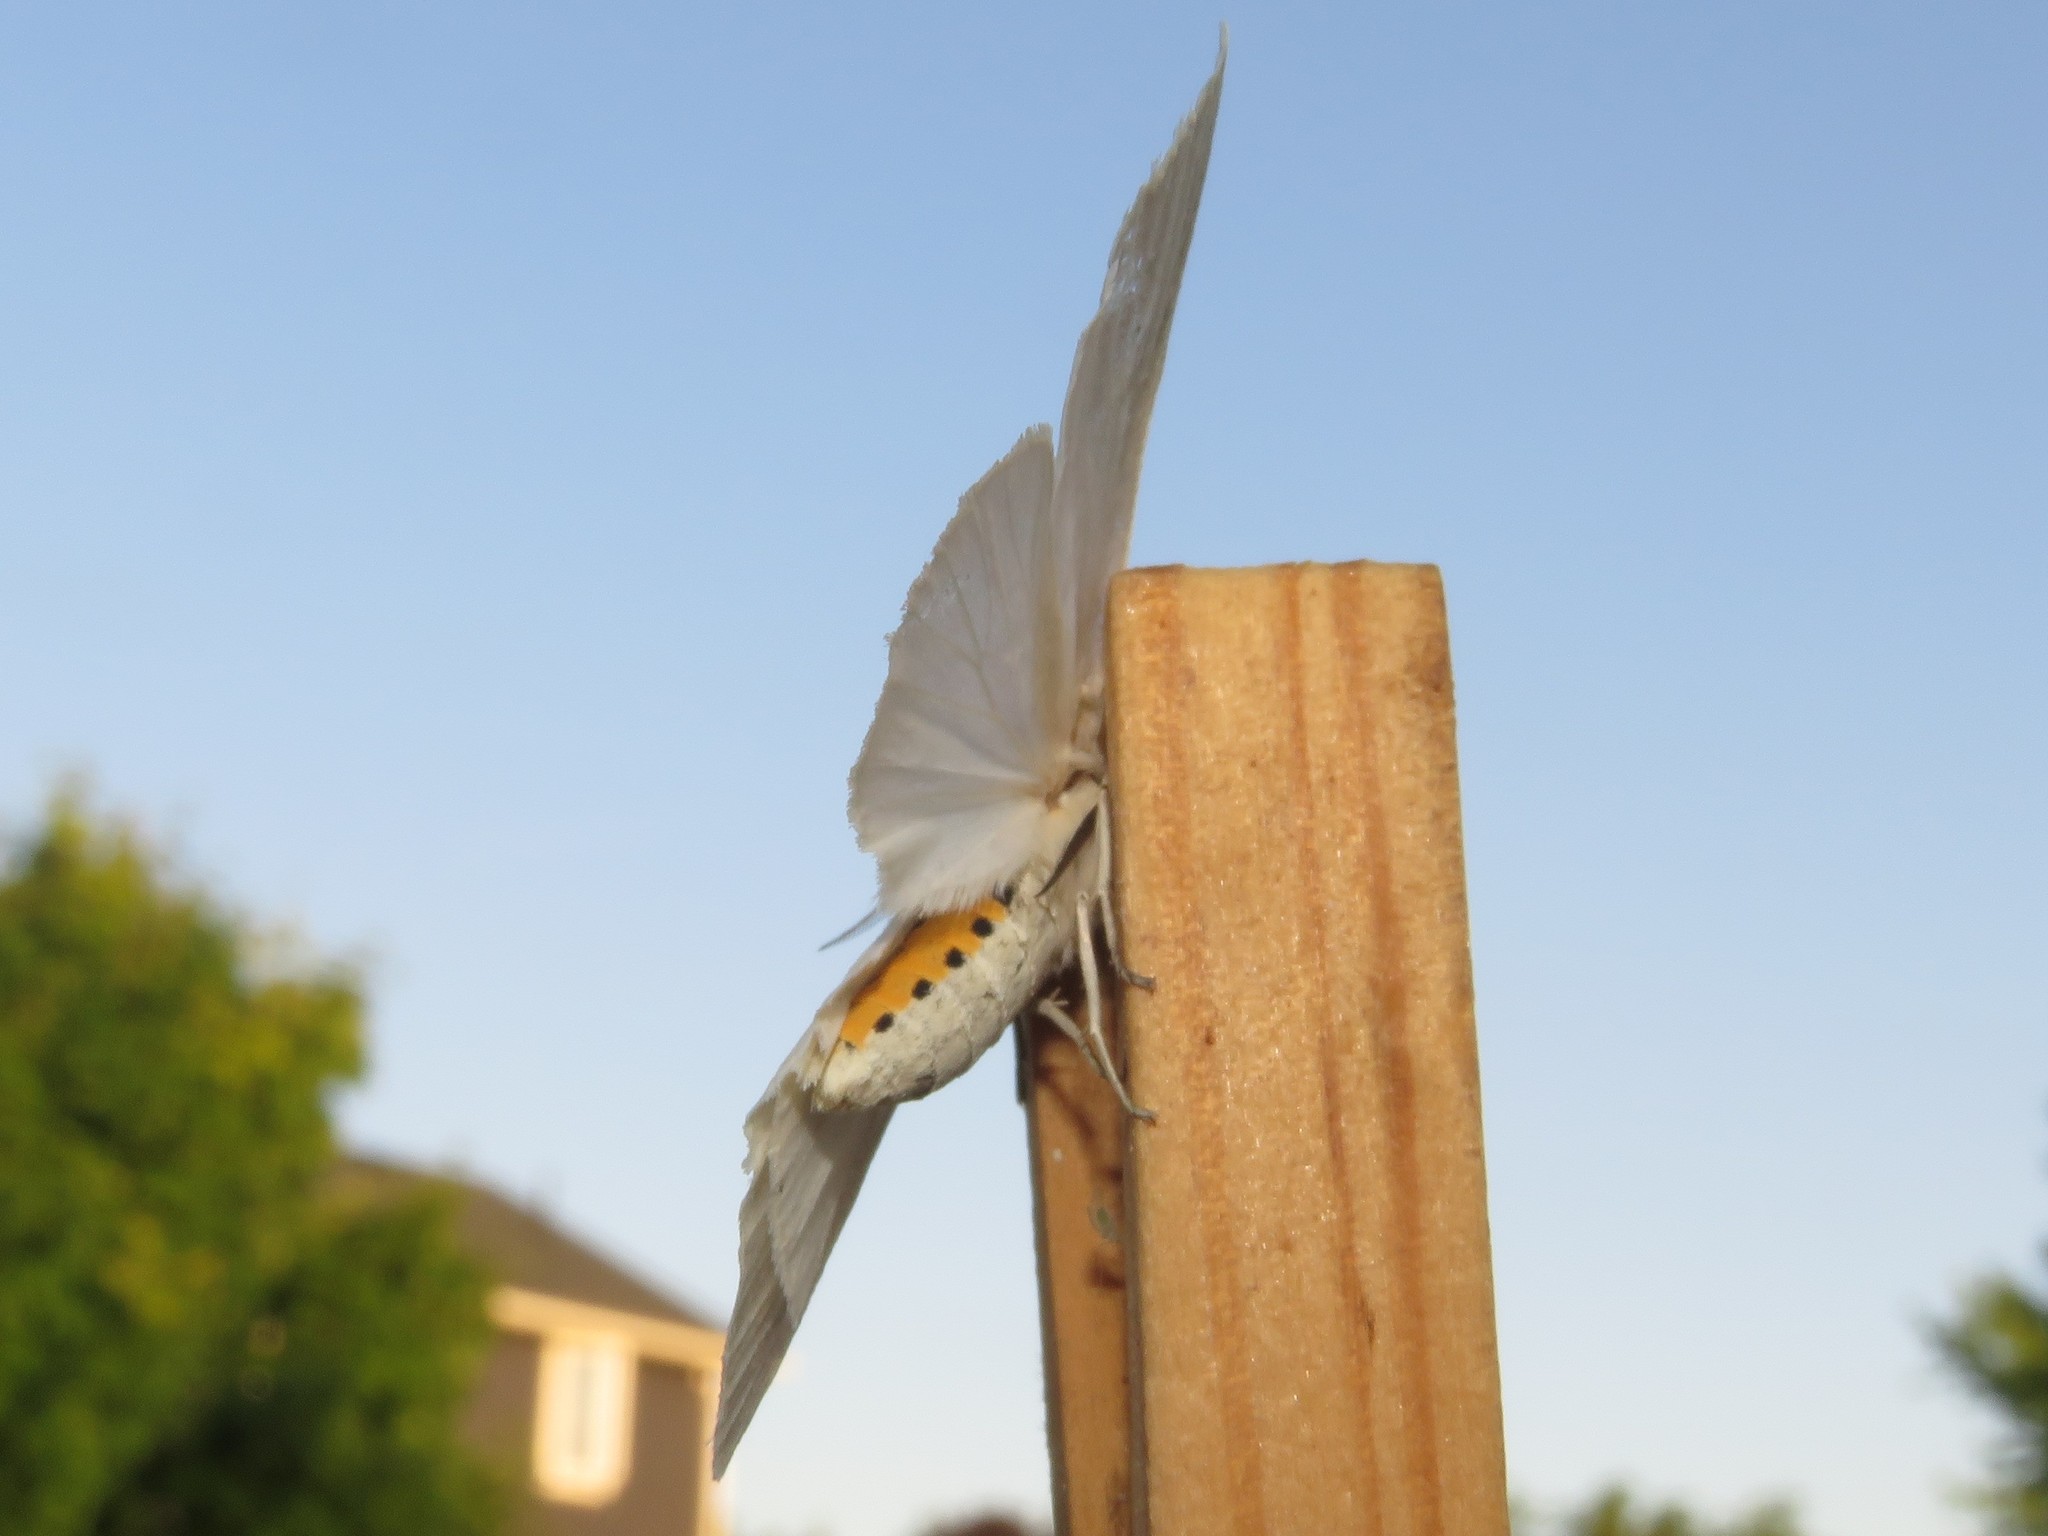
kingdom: Animalia
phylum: Arthropoda
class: Insecta
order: Lepidoptera
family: Erebidae
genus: Cycnia
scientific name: Cycnia oregonensis
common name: Oregon cycnia moth
